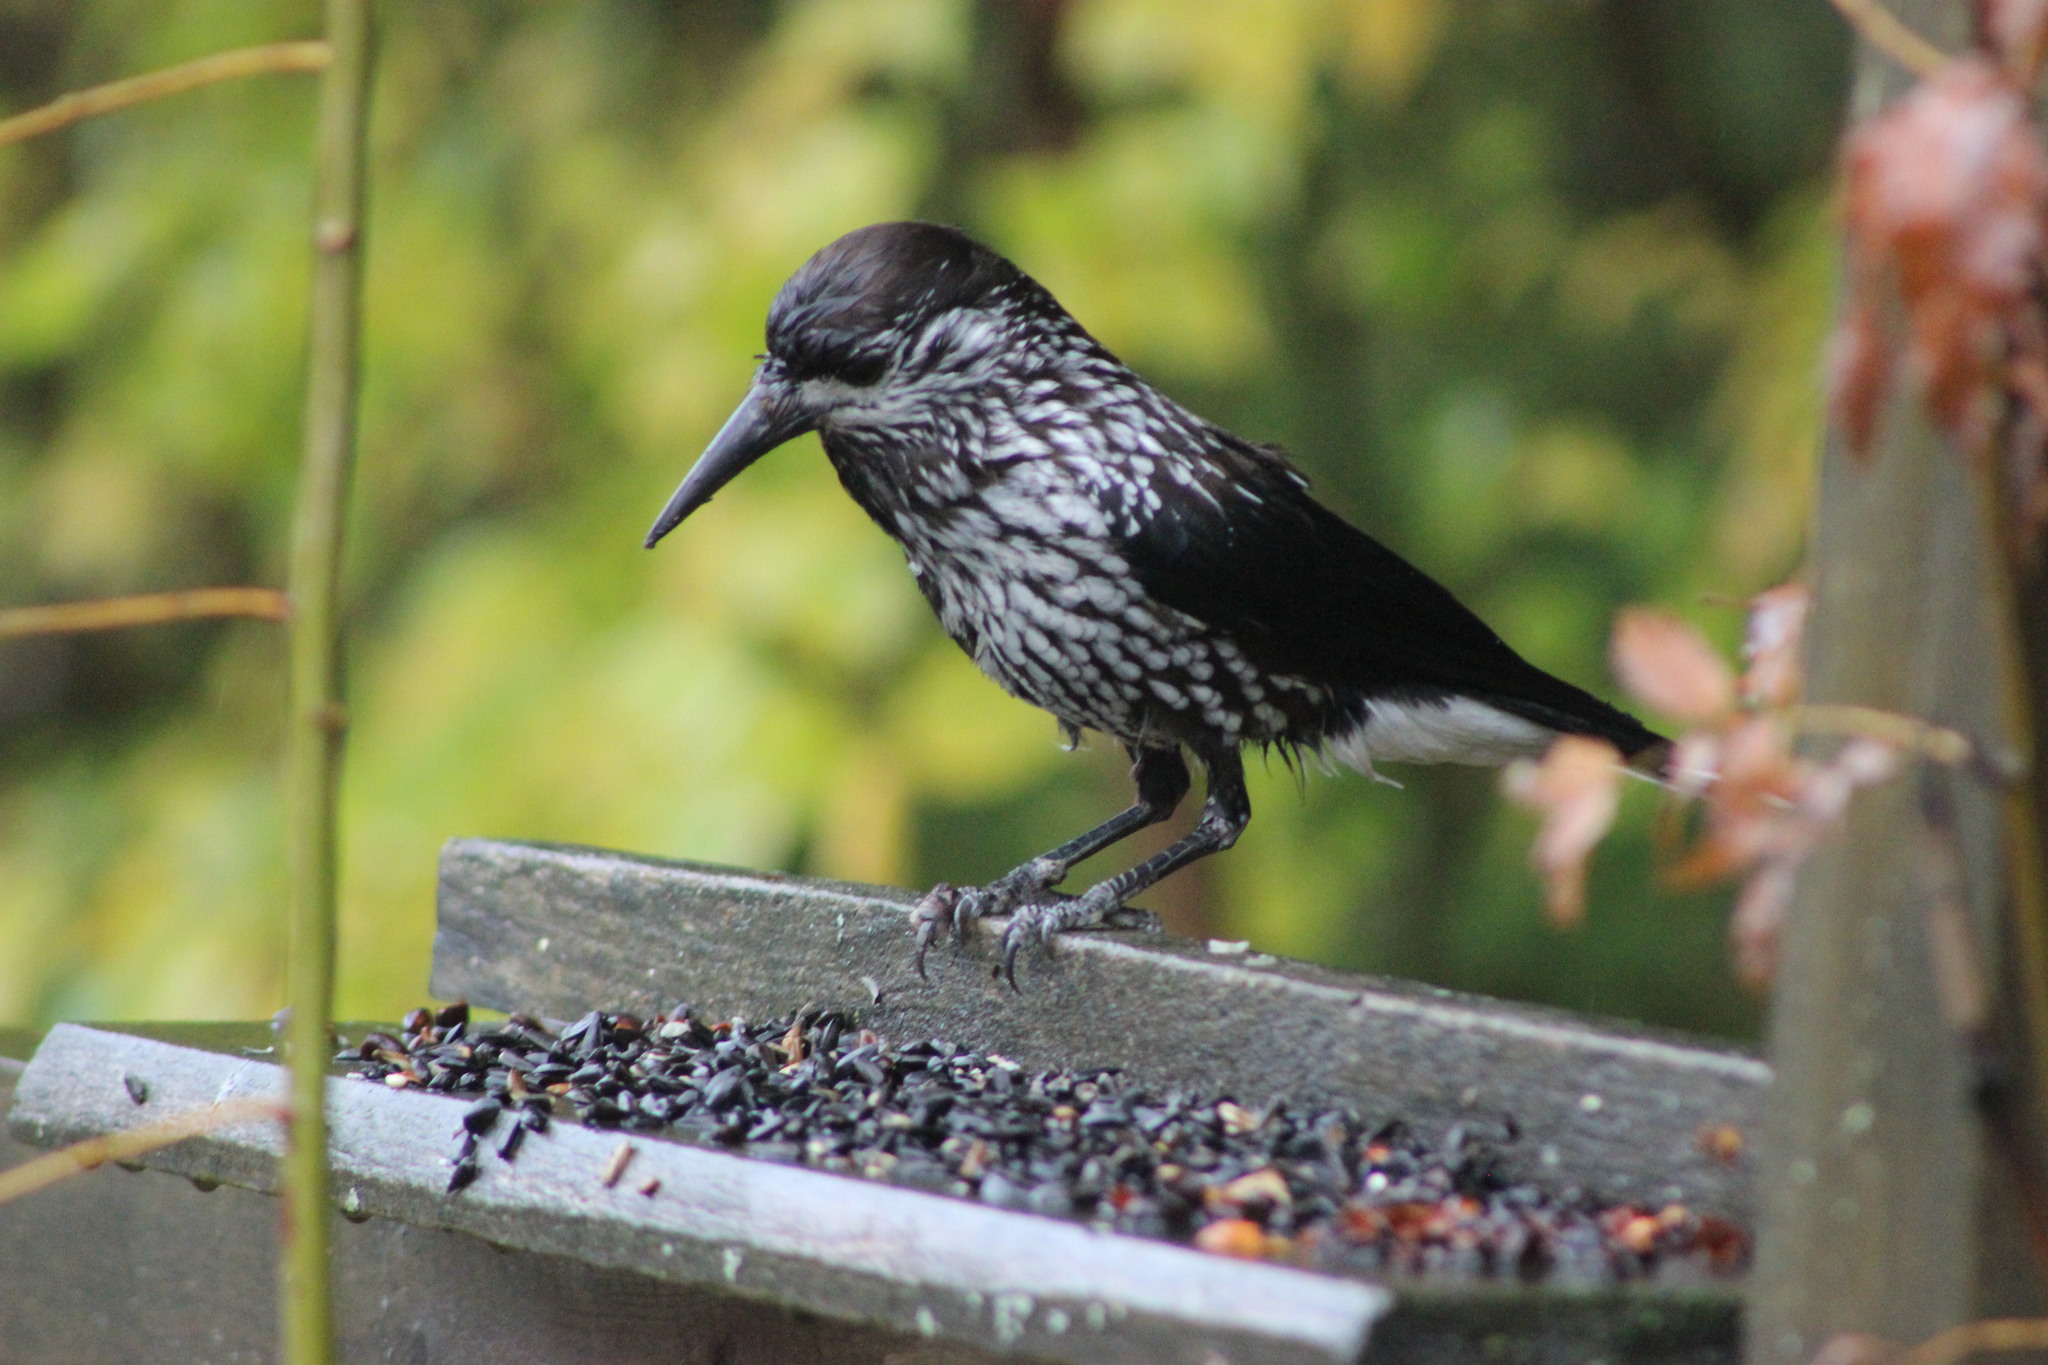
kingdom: Animalia
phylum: Chordata
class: Aves
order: Passeriformes
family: Corvidae
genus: Nucifraga
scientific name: Nucifraga caryocatactes
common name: Spotted nutcracker
